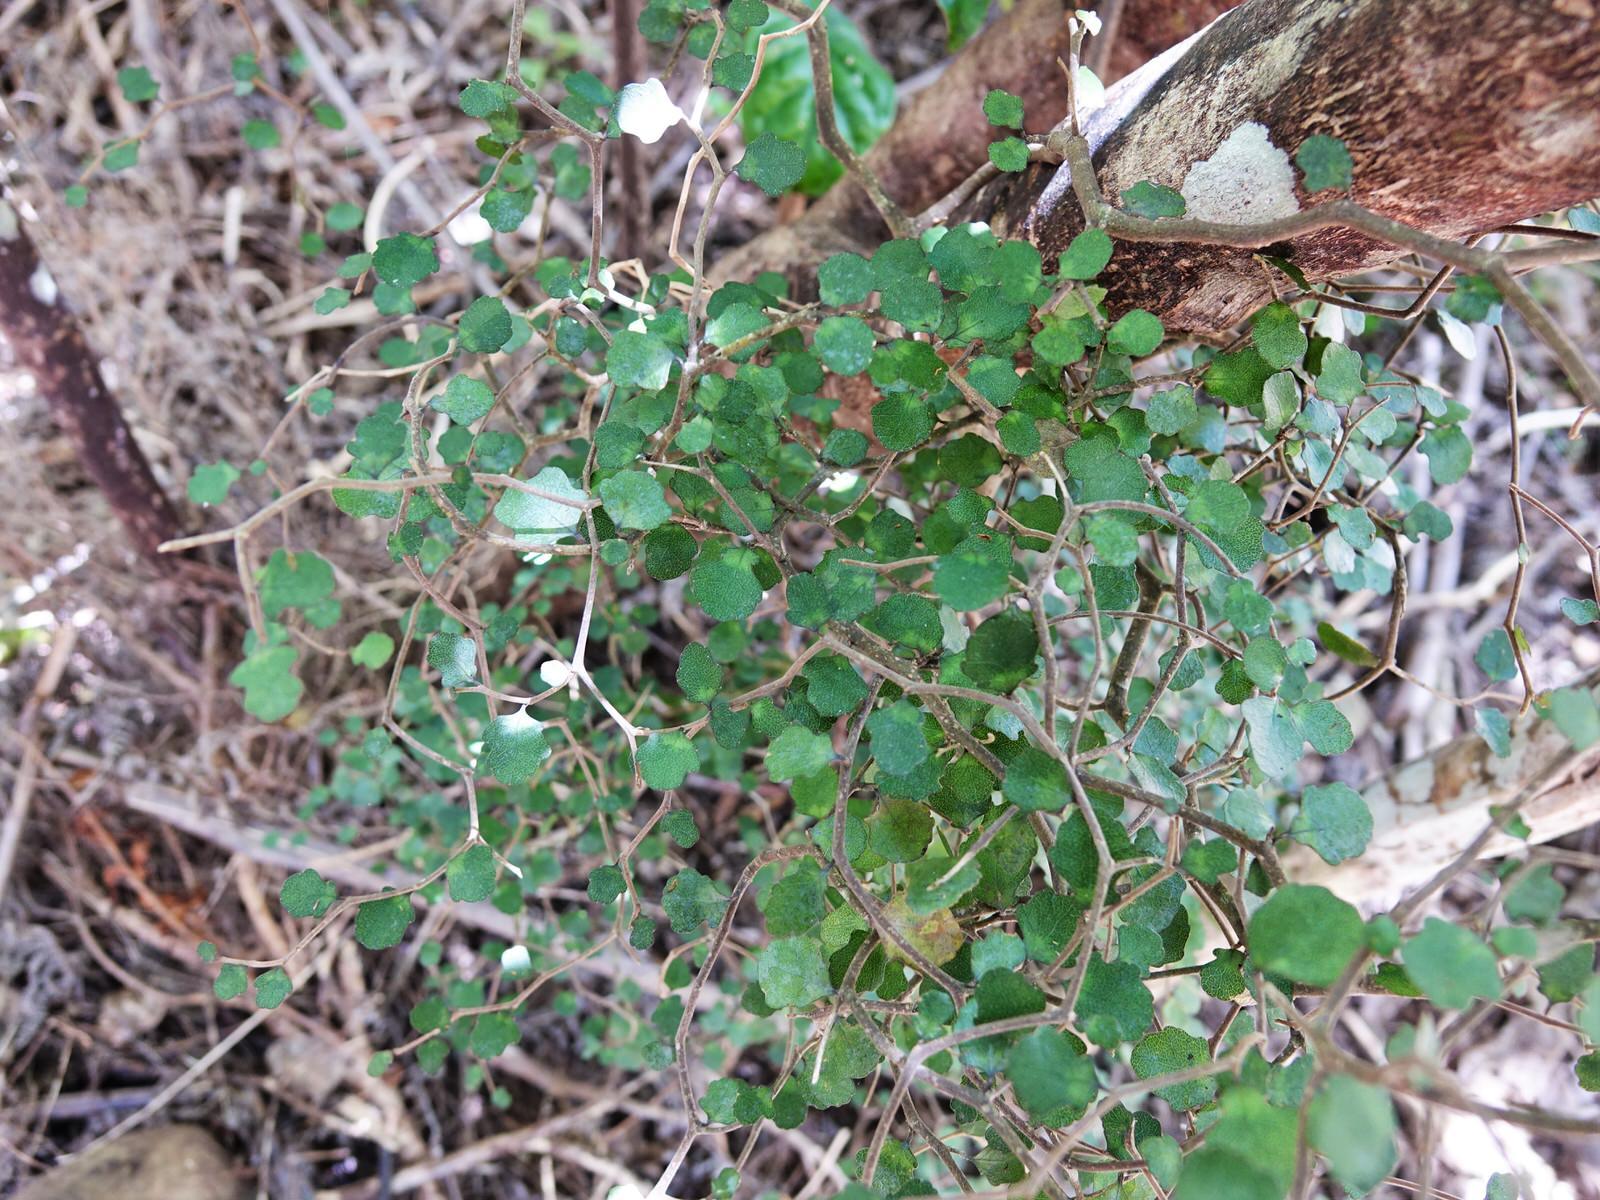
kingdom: Plantae
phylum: Tracheophyta
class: Magnoliopsida
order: Malpighiales
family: Violaceae
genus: Melicytus
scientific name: Melicytus micranthus
